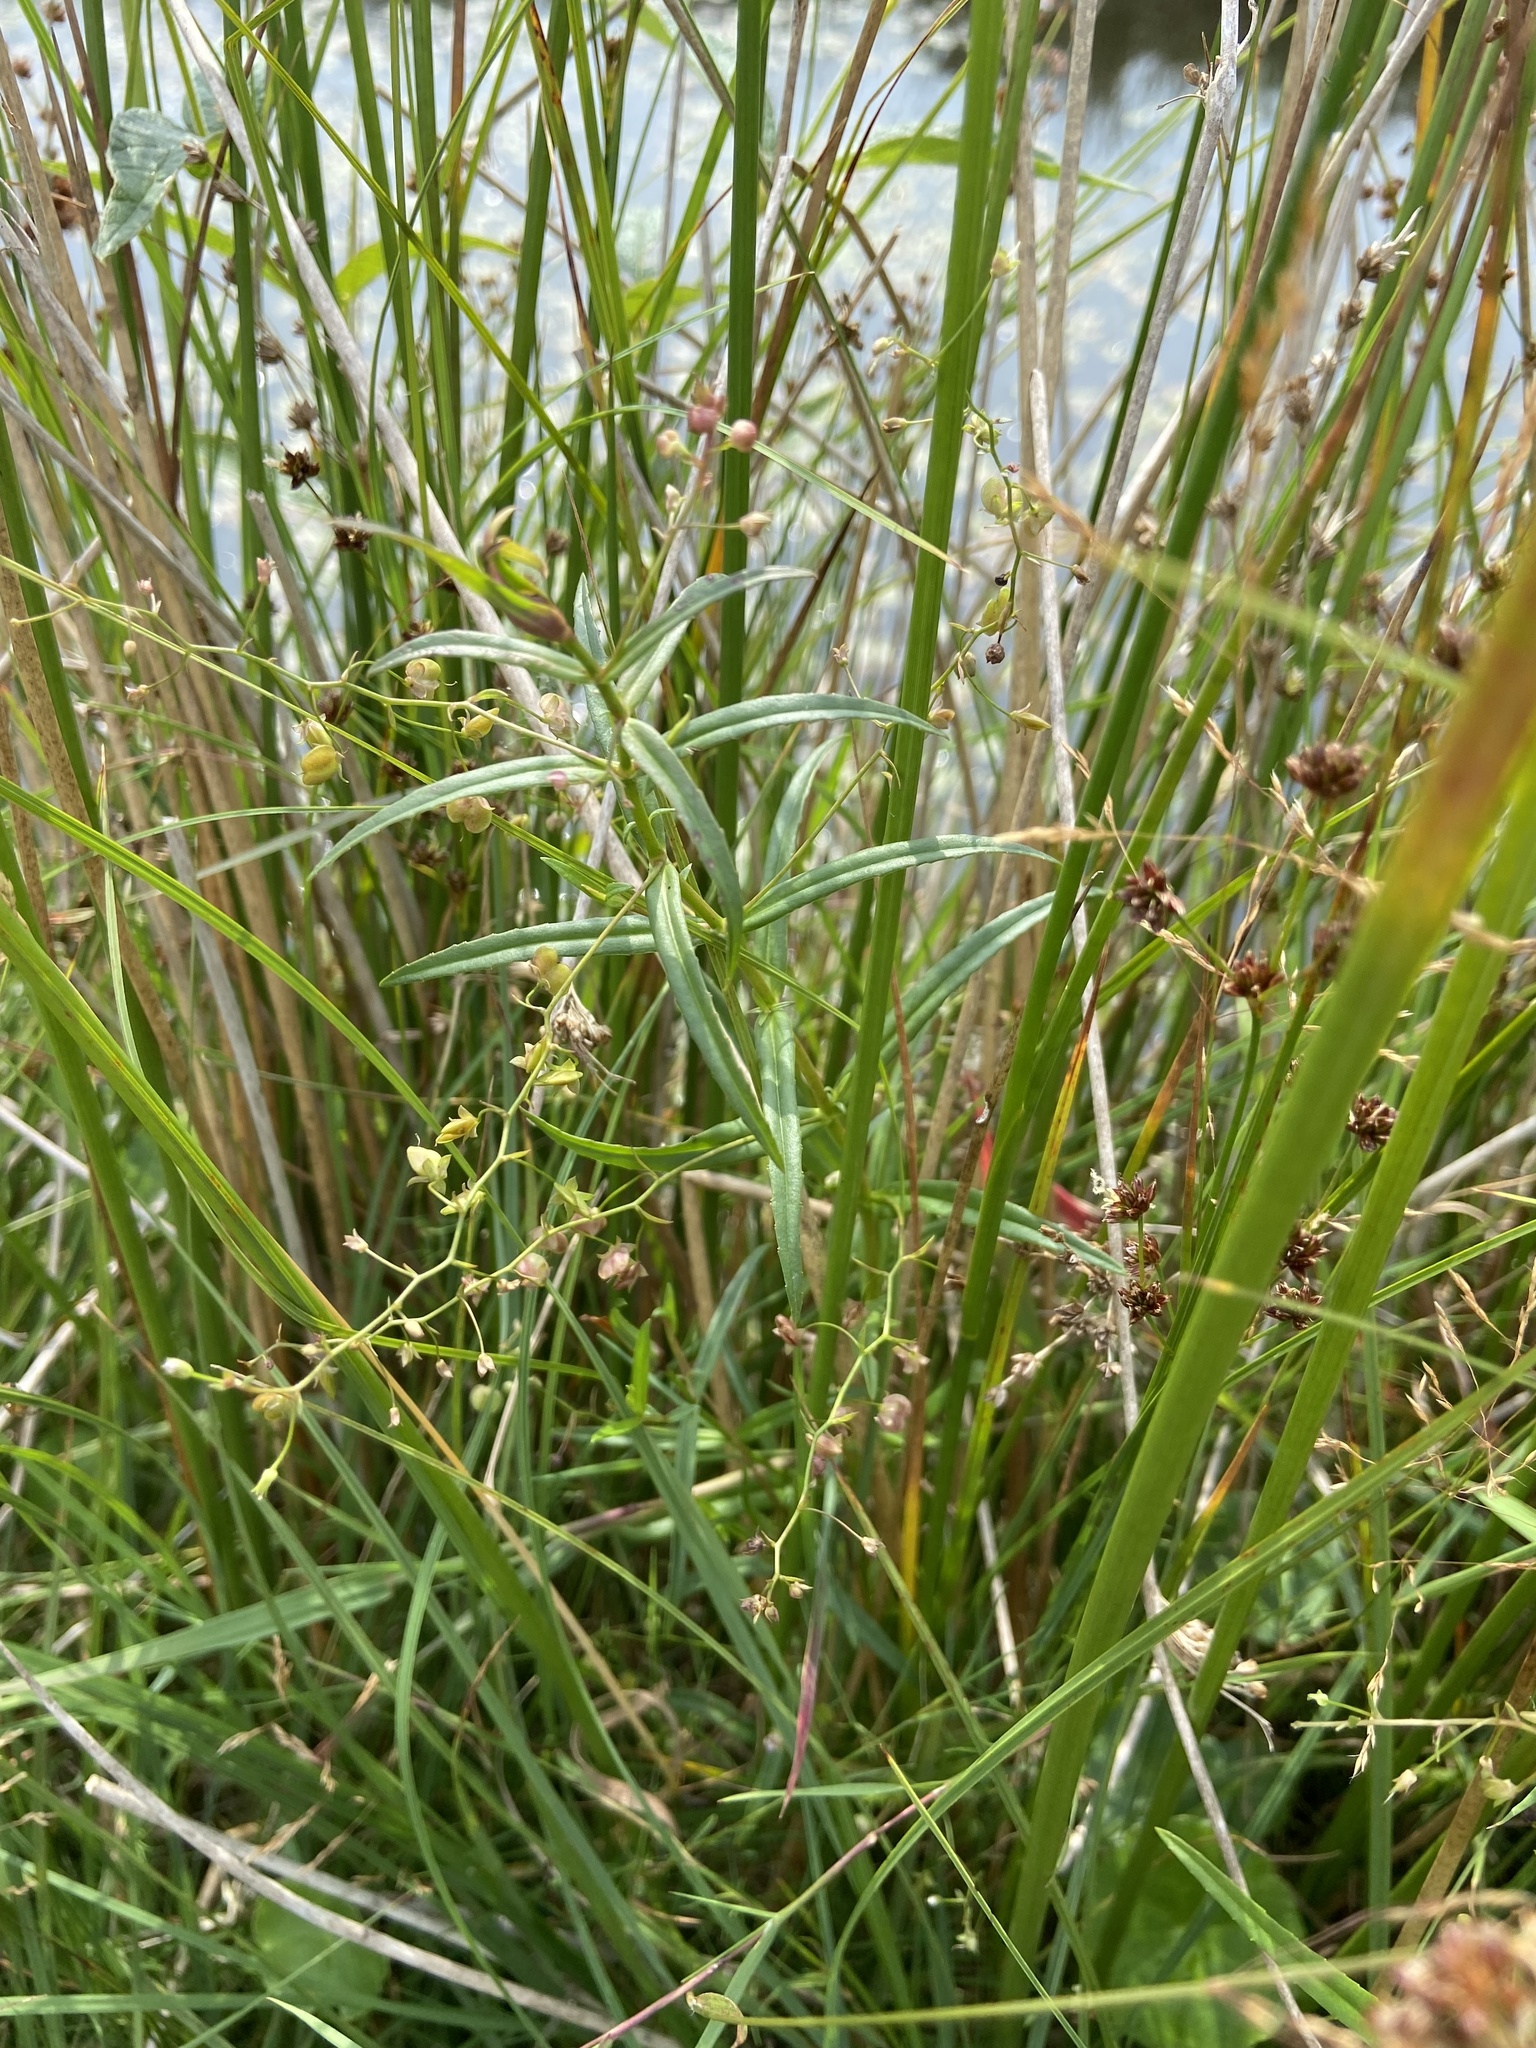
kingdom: Plantae
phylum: Tracheophyta
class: Magnoliopsida
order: Lamiales
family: Plantaginaceae
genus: Veronica
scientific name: Veronica scutellata
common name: Marsh speedwell
